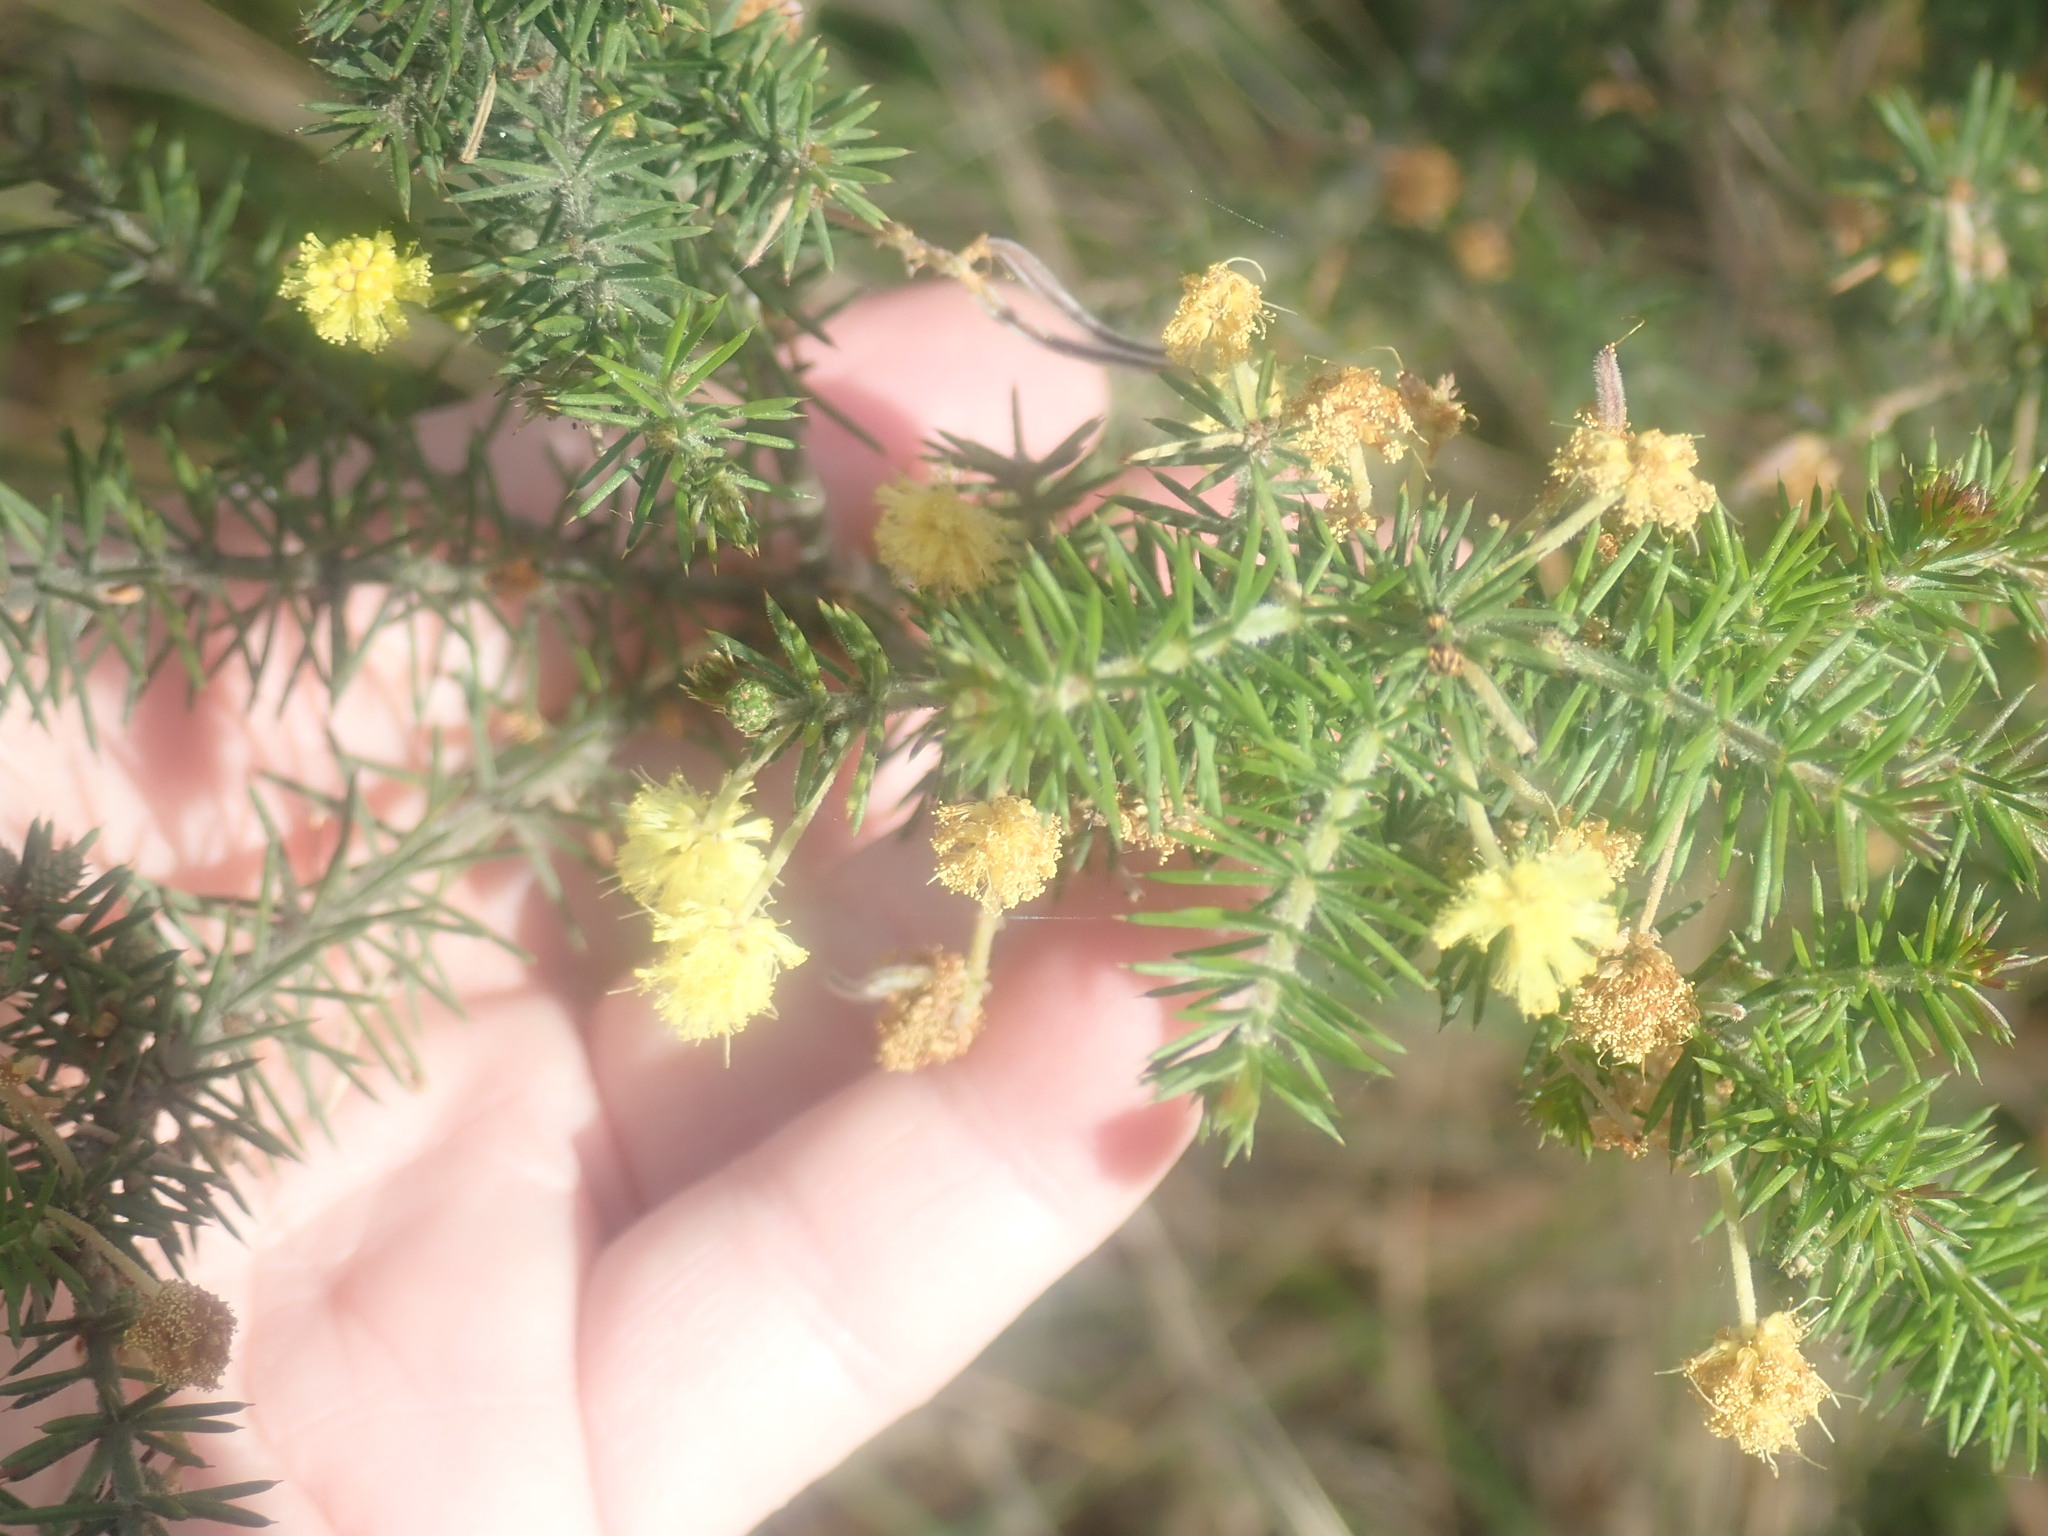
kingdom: Plantae
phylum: Tracheophyta
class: Magnoliopsida
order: Fabales
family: Fabaceae
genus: Acacia
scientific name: Acacia verticillata
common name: Prickly moses
